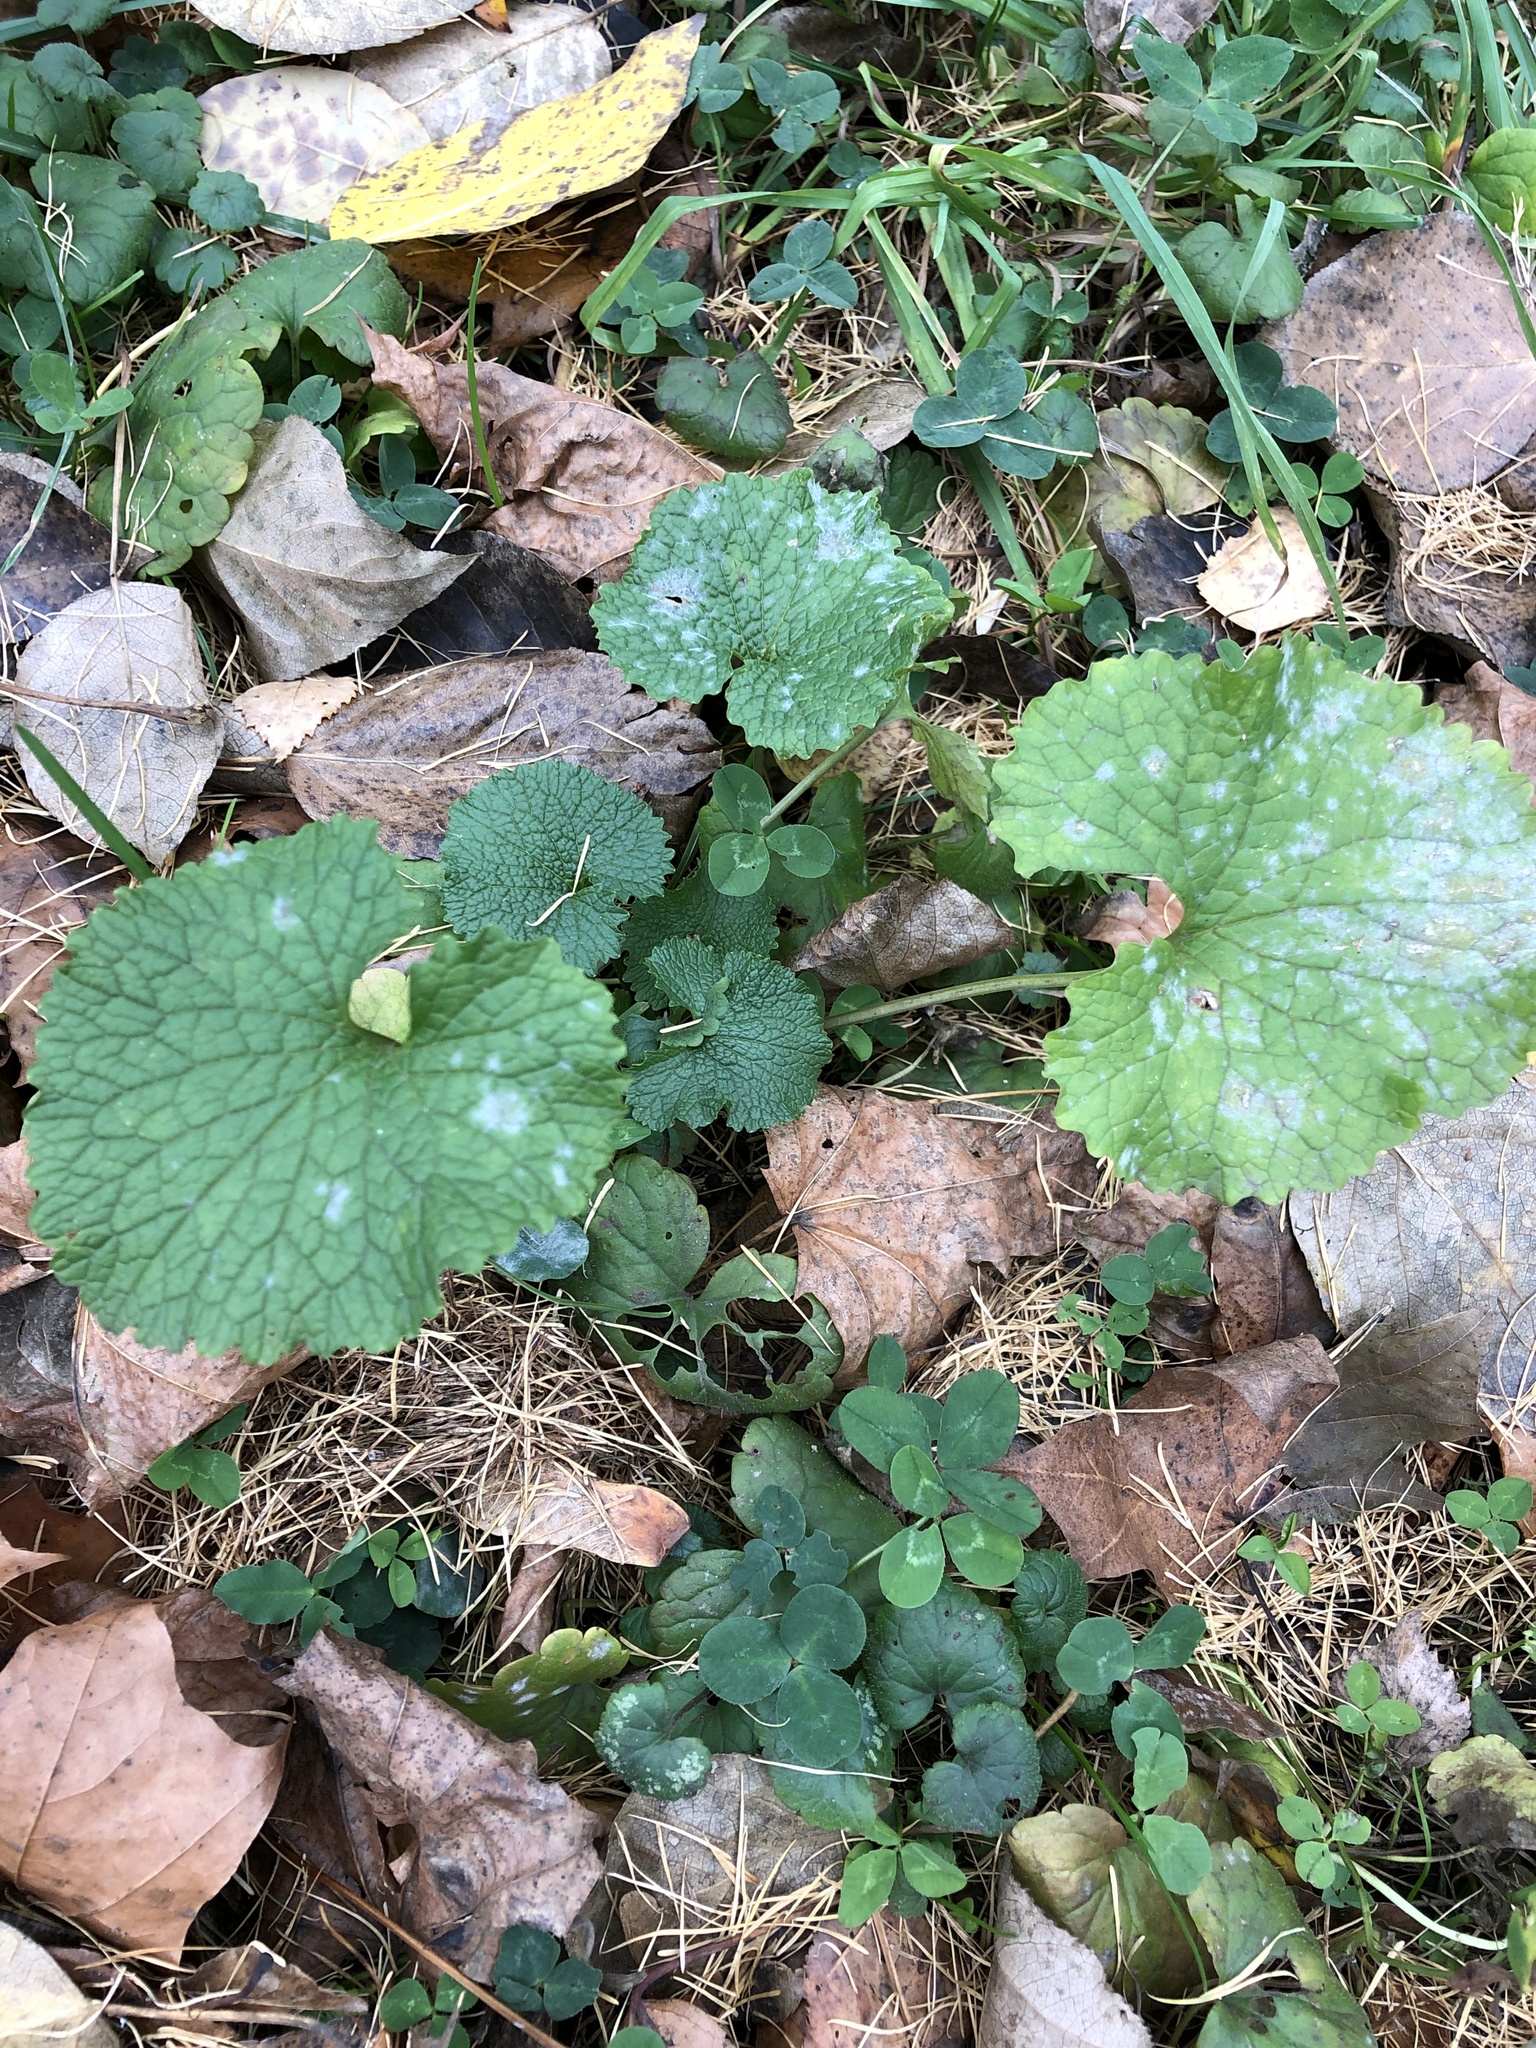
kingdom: Plantae
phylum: Tracheophyta
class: Magnoliopsida
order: Brassicales
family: Brassicaceae
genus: Alliaria
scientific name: Alliaria petiolata
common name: Garlic mustard
